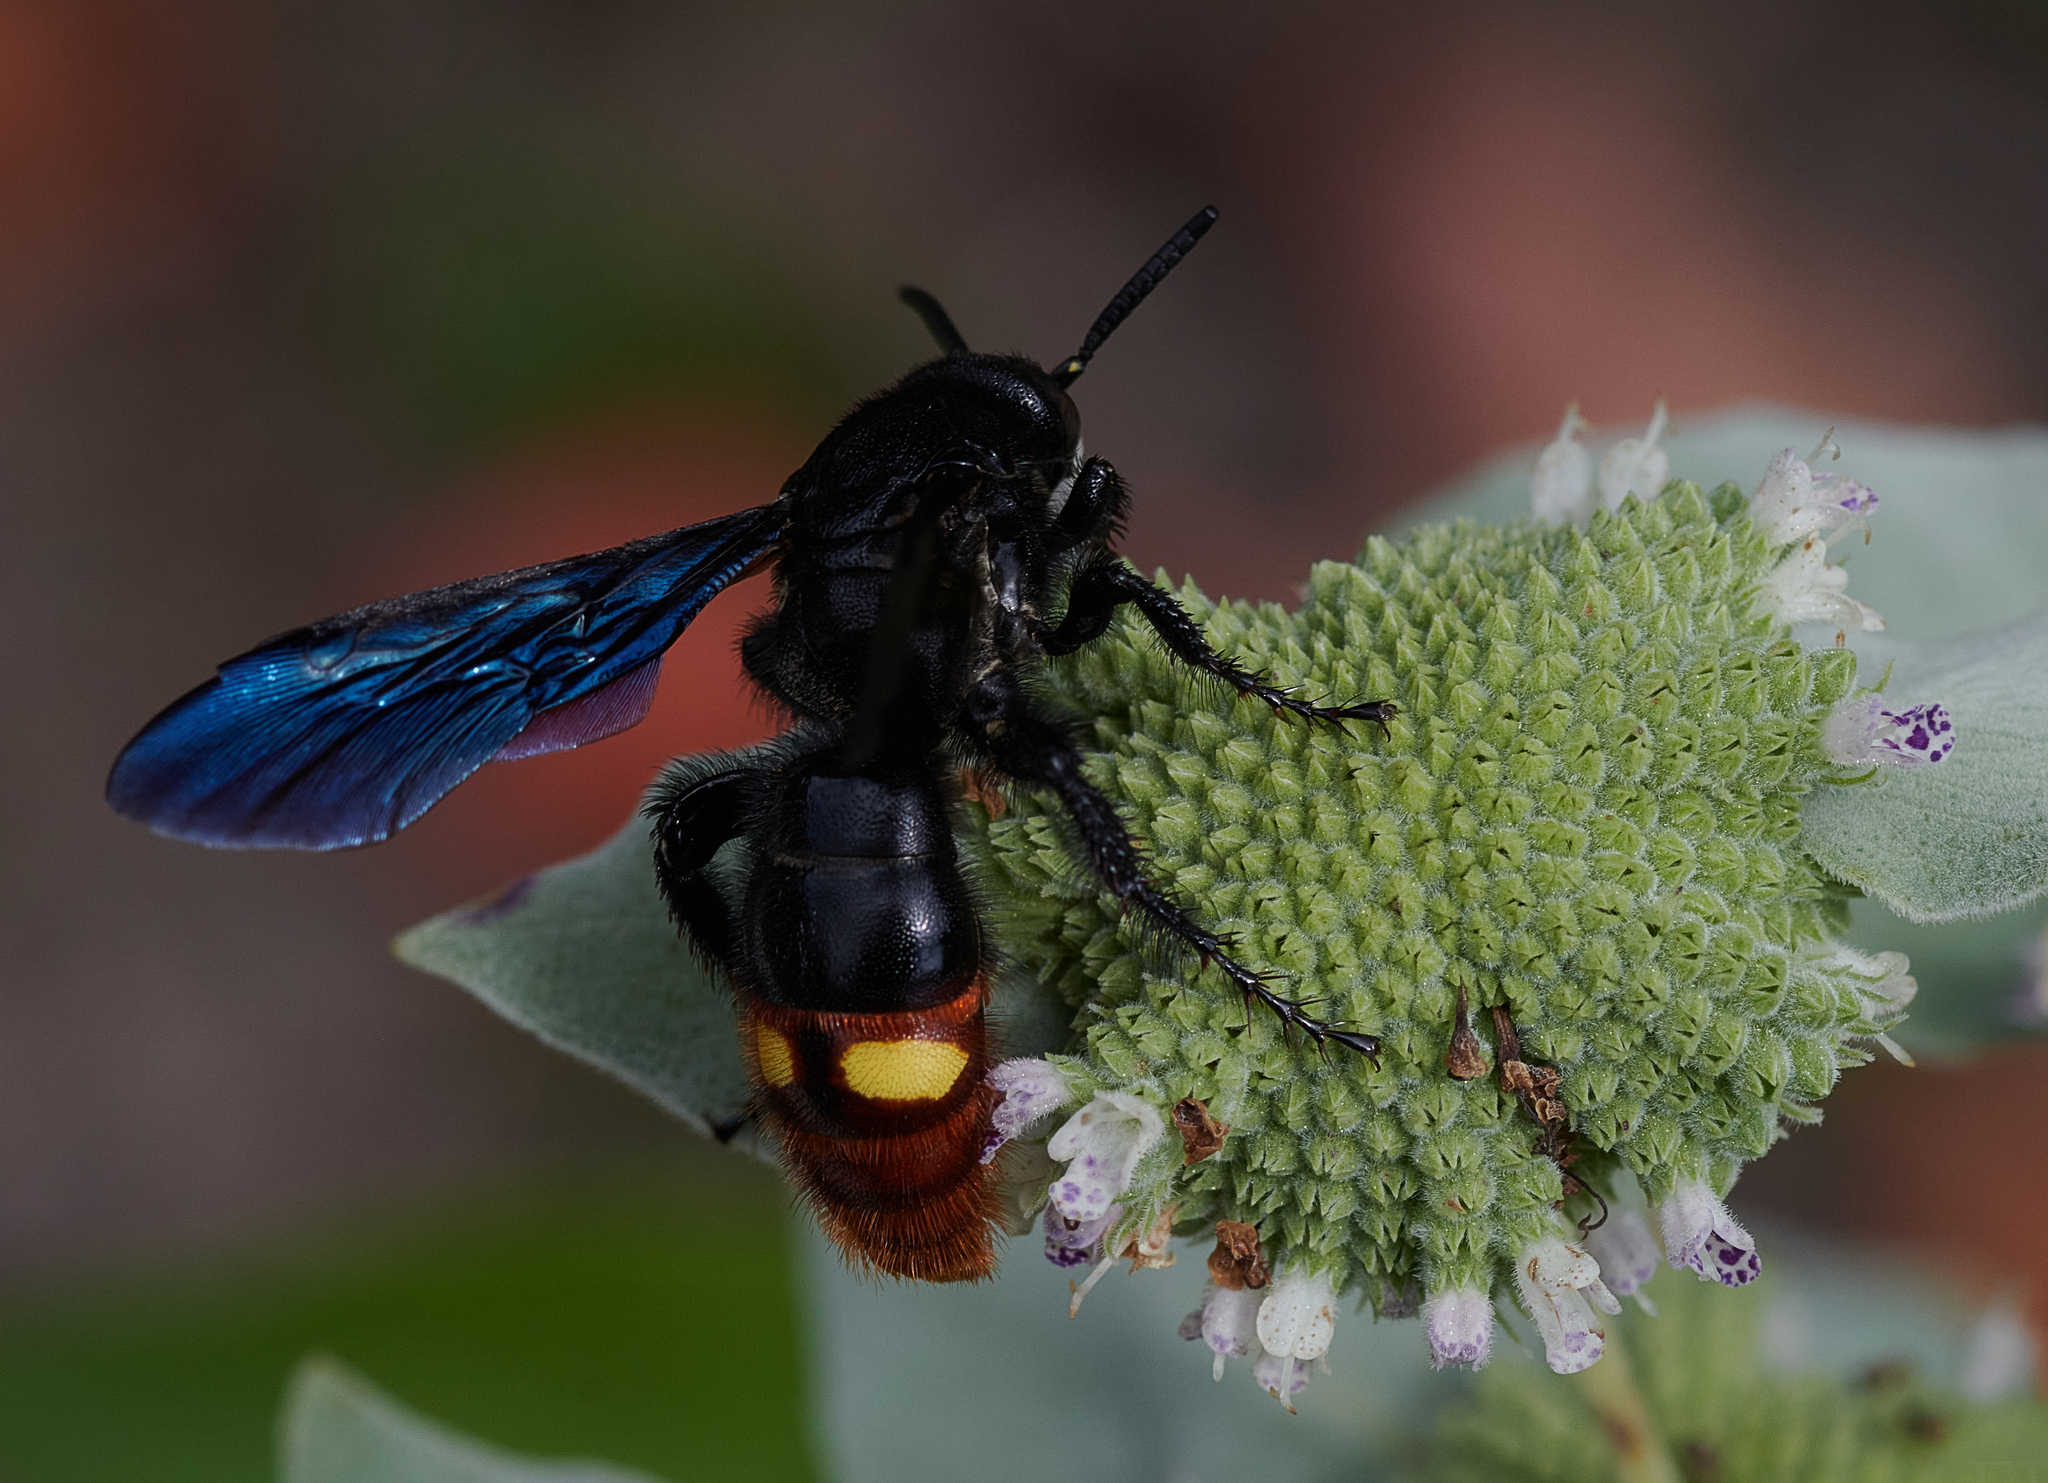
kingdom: Animalia
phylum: Arthropoda
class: Insecta
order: Hymenoptera
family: Scoliidae
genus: Scolia
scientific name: Scolia dubia
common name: Blue-winged scoliid wasp
